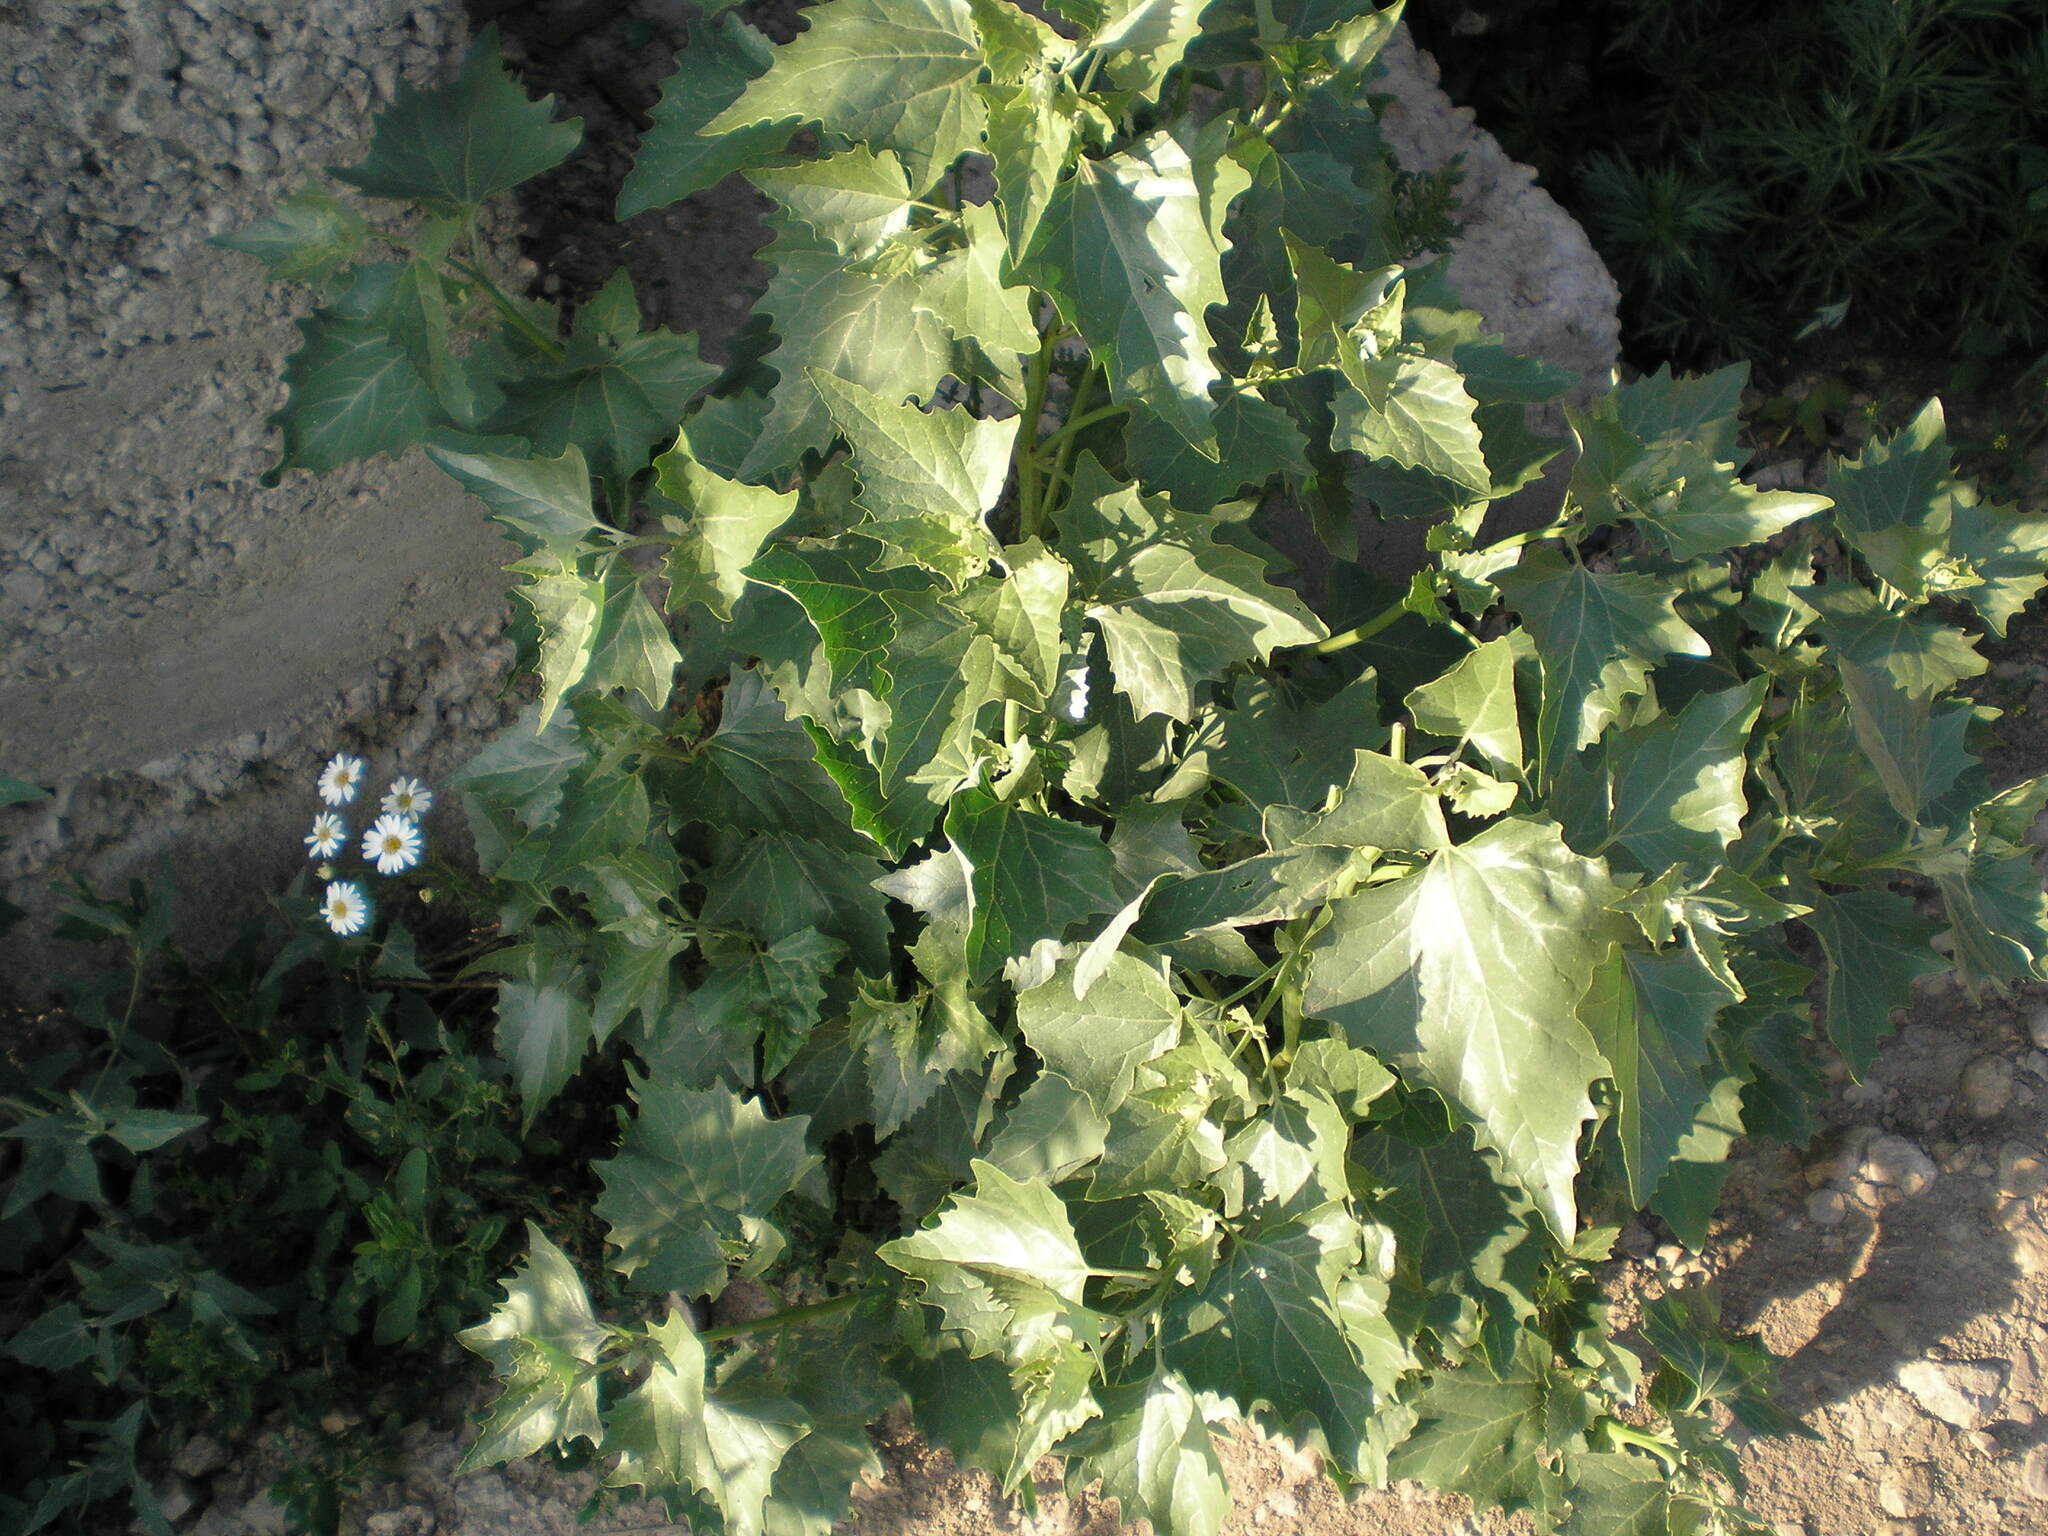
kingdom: Plantae
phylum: Tracheophyta
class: Magnoliopsida
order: Caryophyllales
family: Amaranthaceae
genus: Atriplex
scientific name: Atriplex sagittata
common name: Purple orache
